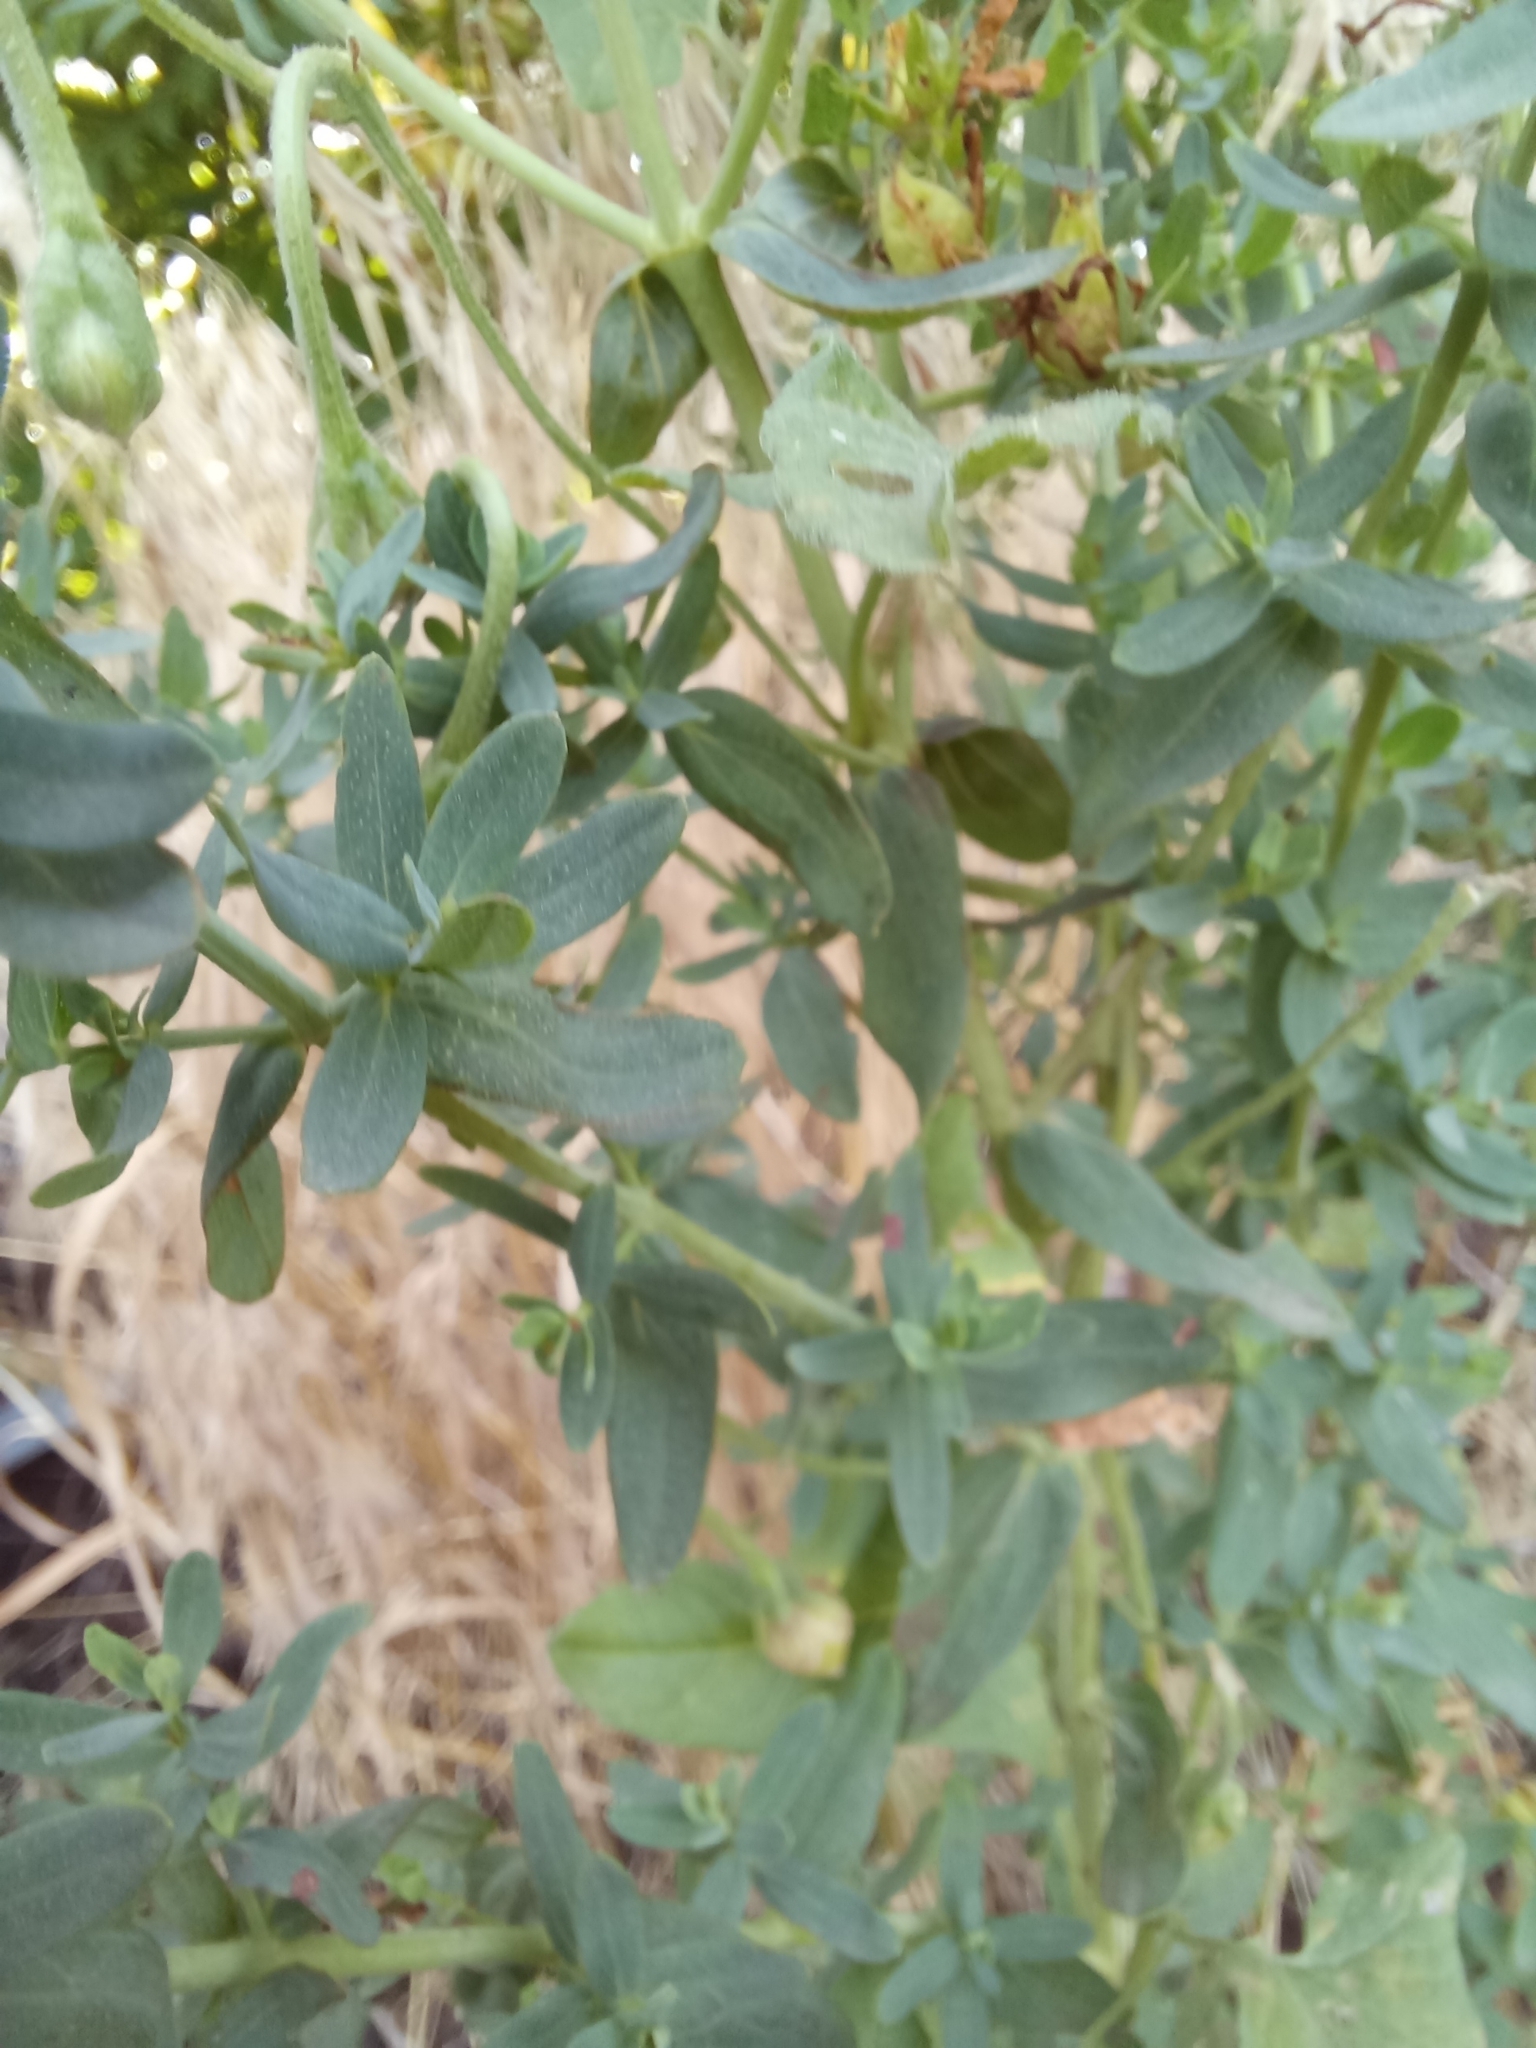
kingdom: Plantae
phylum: Tracheophyta
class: Magnoliopsida
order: Malpighiales
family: Hypericaceae
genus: Hypericum
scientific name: Hypericum perforatum
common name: Common st. johnswort
